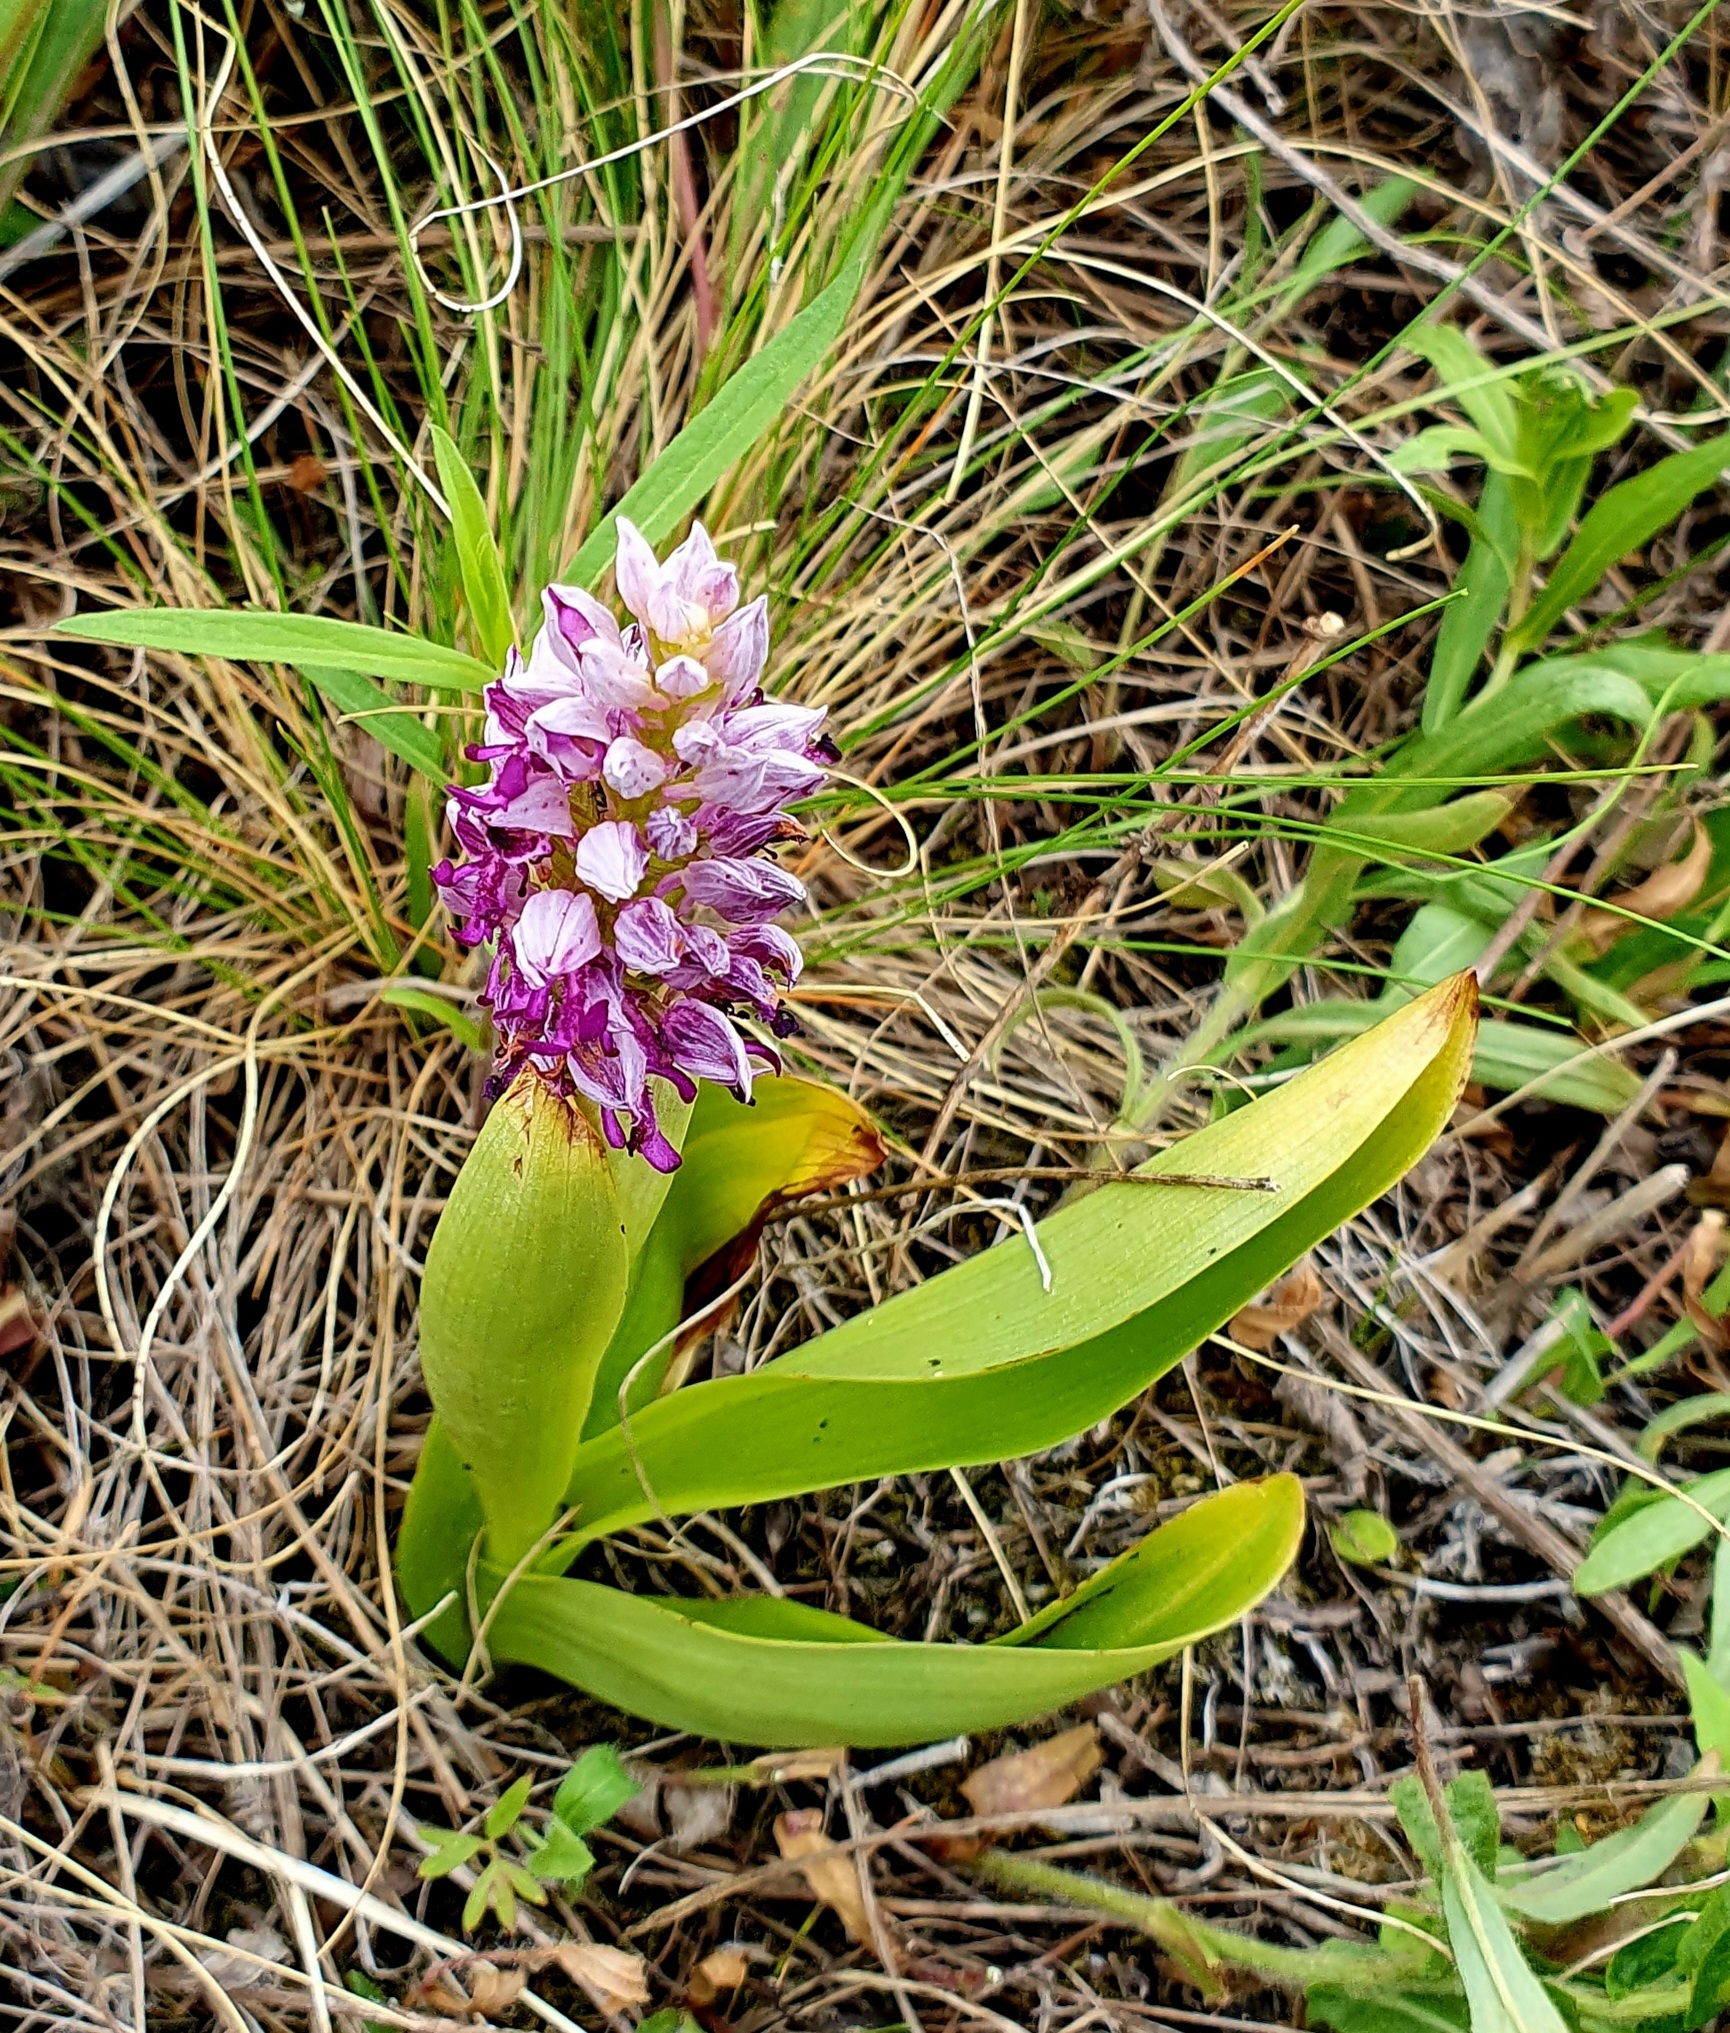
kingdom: Plantae
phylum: Tracheophyta
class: Liliopsida
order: Asparagales
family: Orchidaceae
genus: Orchis
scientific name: Orchis militaris
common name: Military orchid
